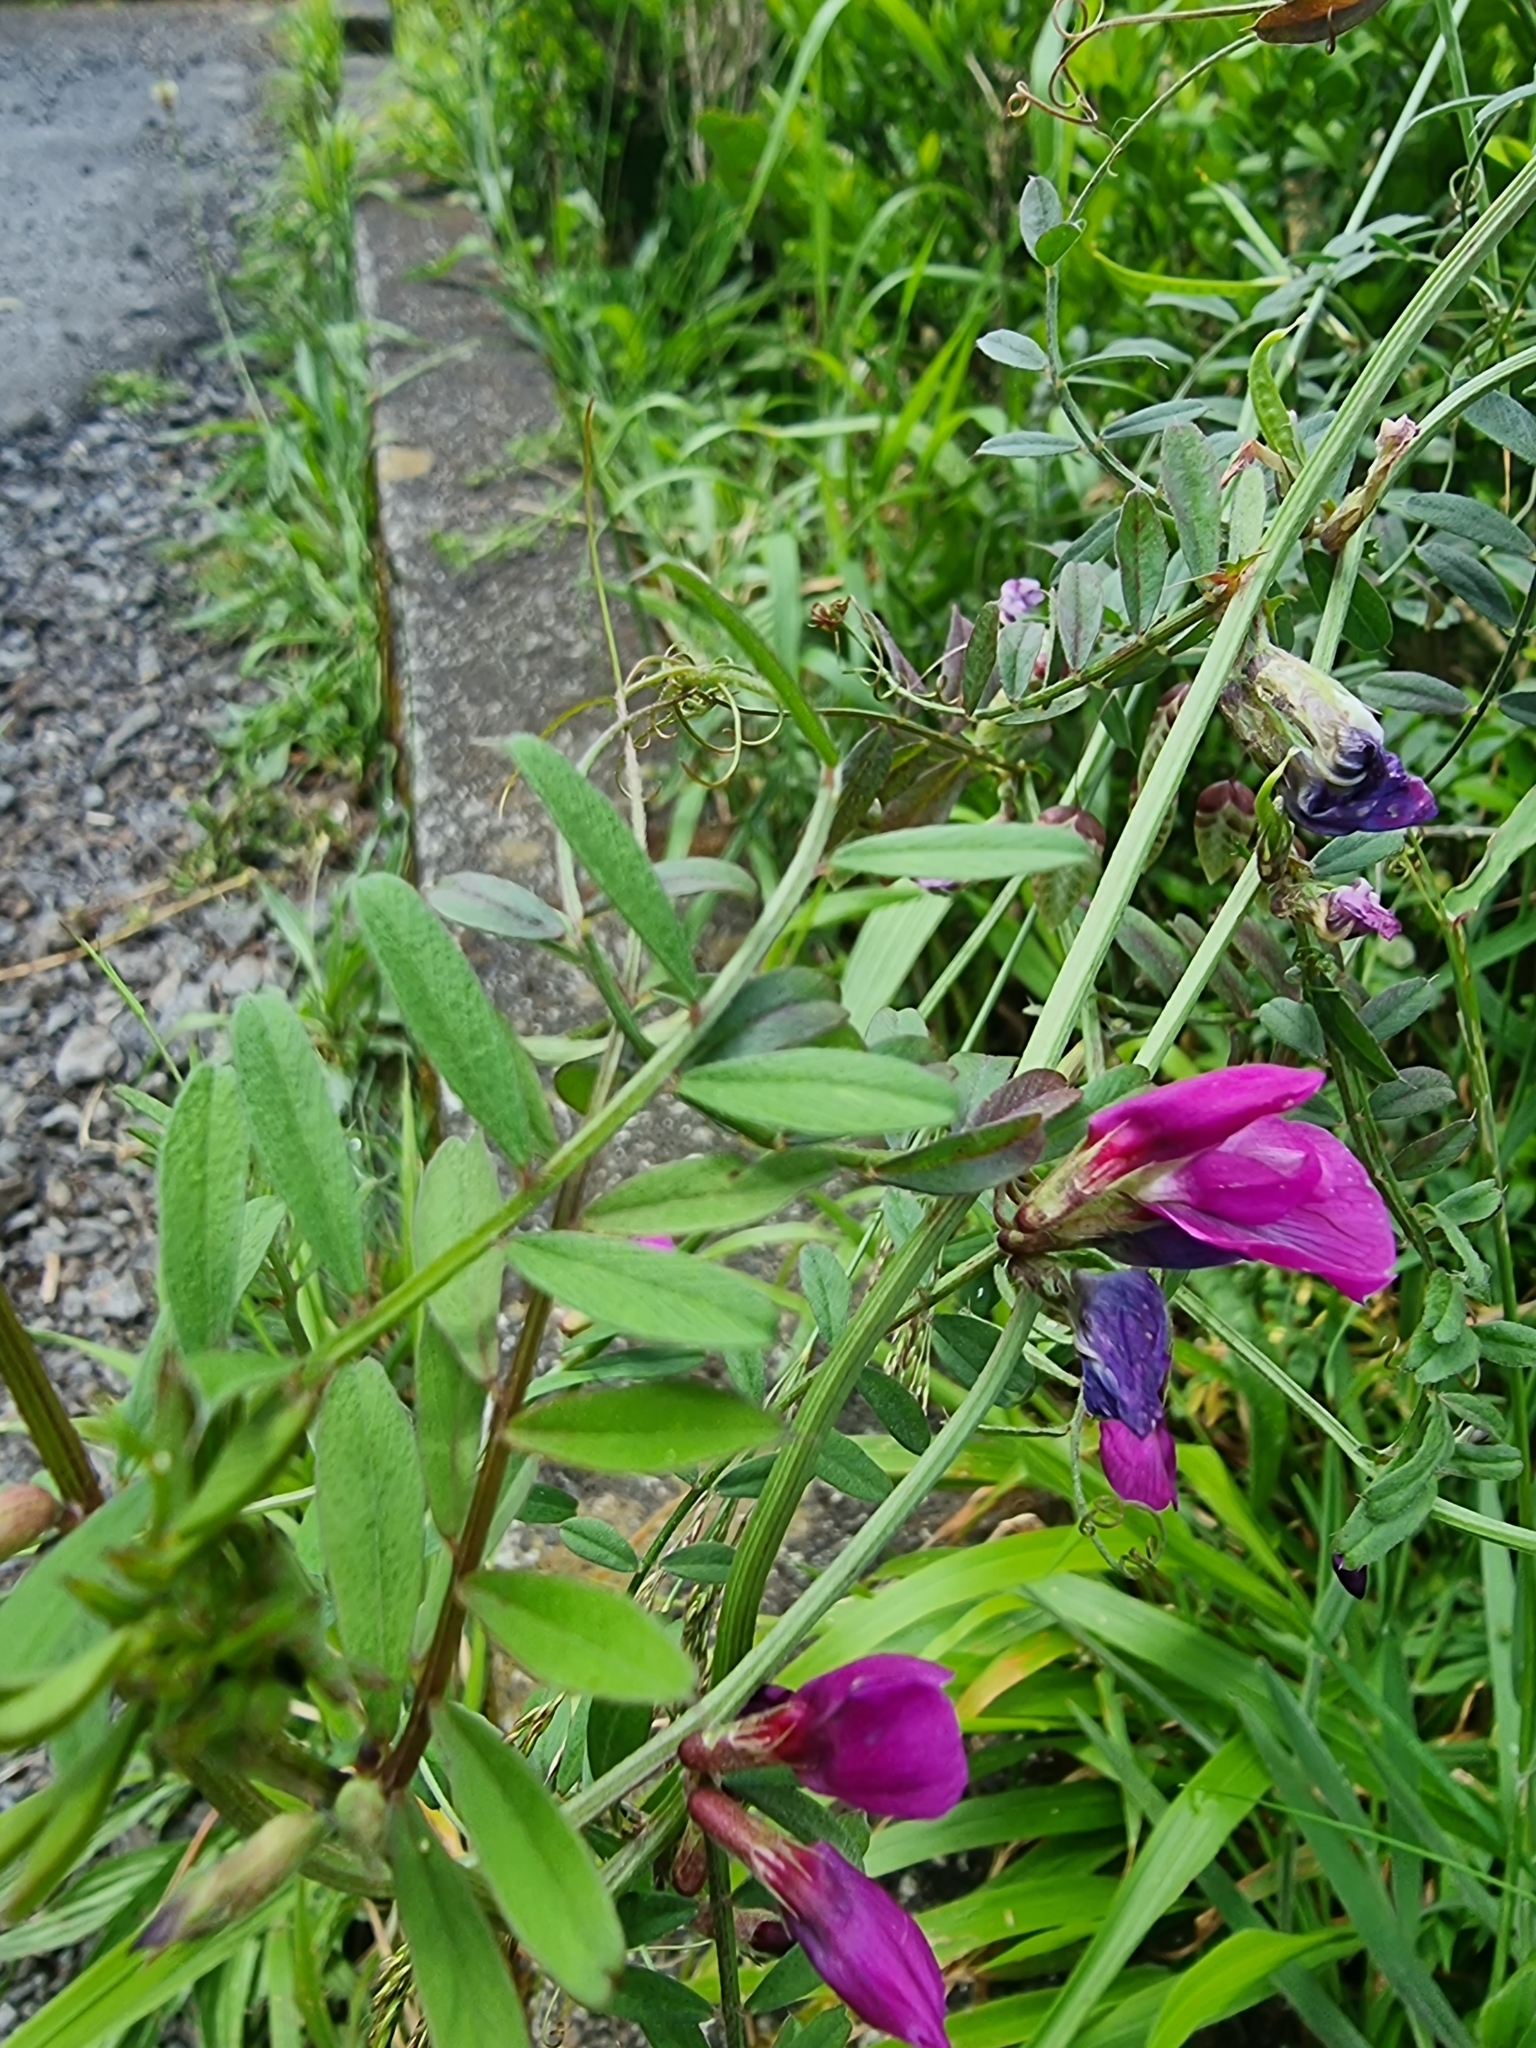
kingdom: Plantae
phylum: Tracheophyta
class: Magnoliopsida
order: Fabales
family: Fabaceae
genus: Vicia
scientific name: Vicia sativa
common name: Garden vetch
